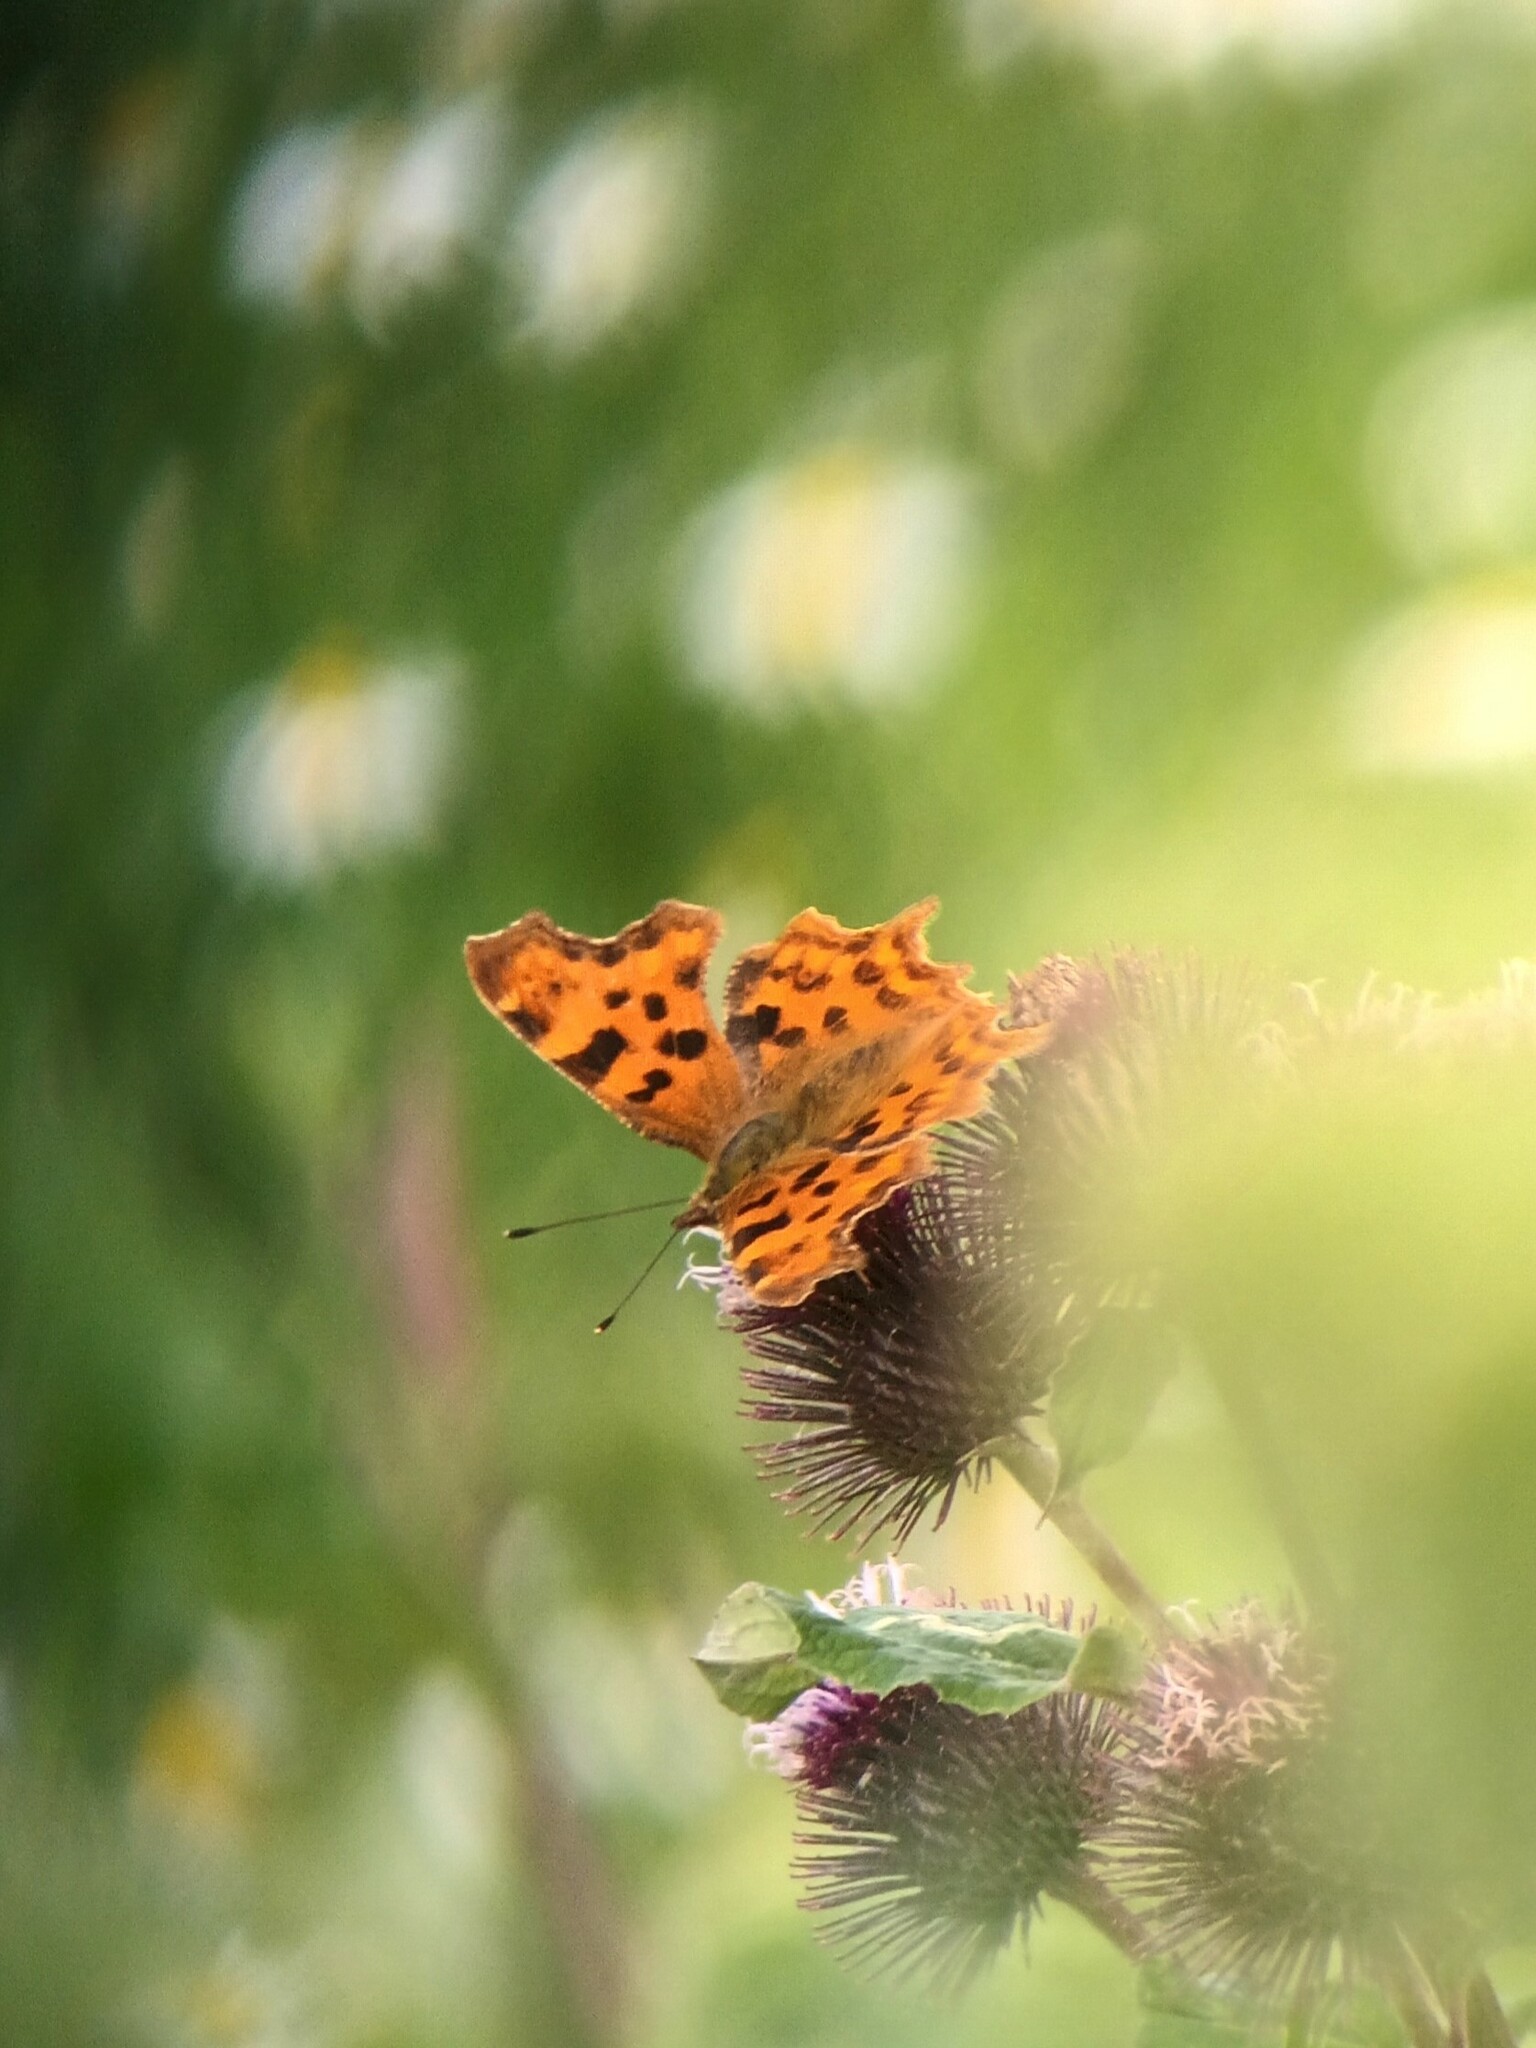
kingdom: Animalia
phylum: Arthropoda
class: Insecta
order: Lepidoptera
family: Nymphalidae
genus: Polygonia
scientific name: Polygonia c-album
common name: Comma
